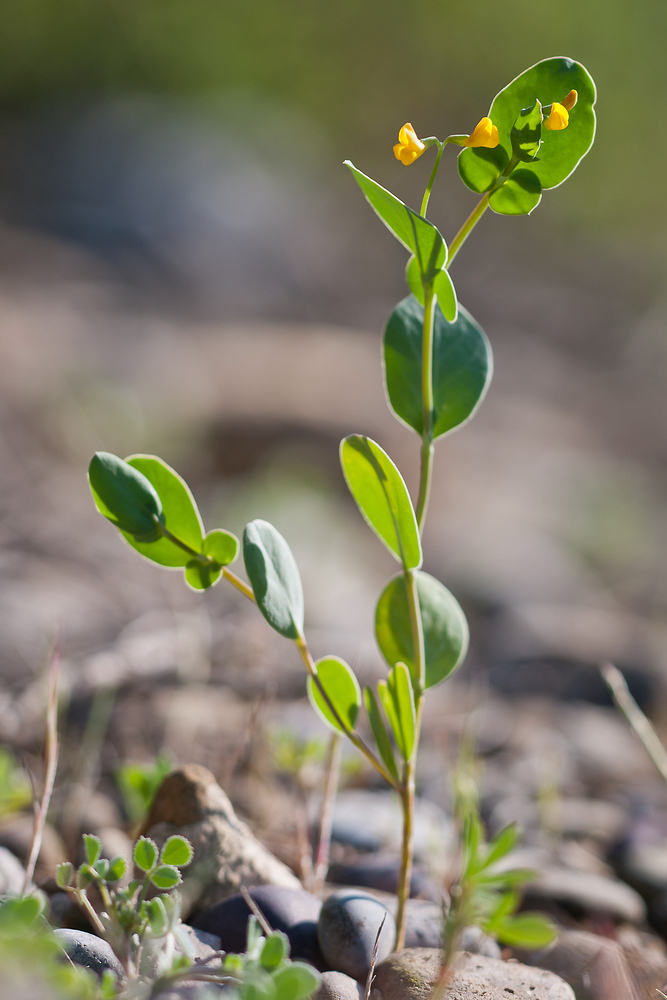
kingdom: Plantae
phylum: Tracheophyta
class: Magnoliopsida
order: Fabales
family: Fabaceae
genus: Coronilla
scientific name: Coronilla scorpioides
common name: Annual scorpion-vetch
